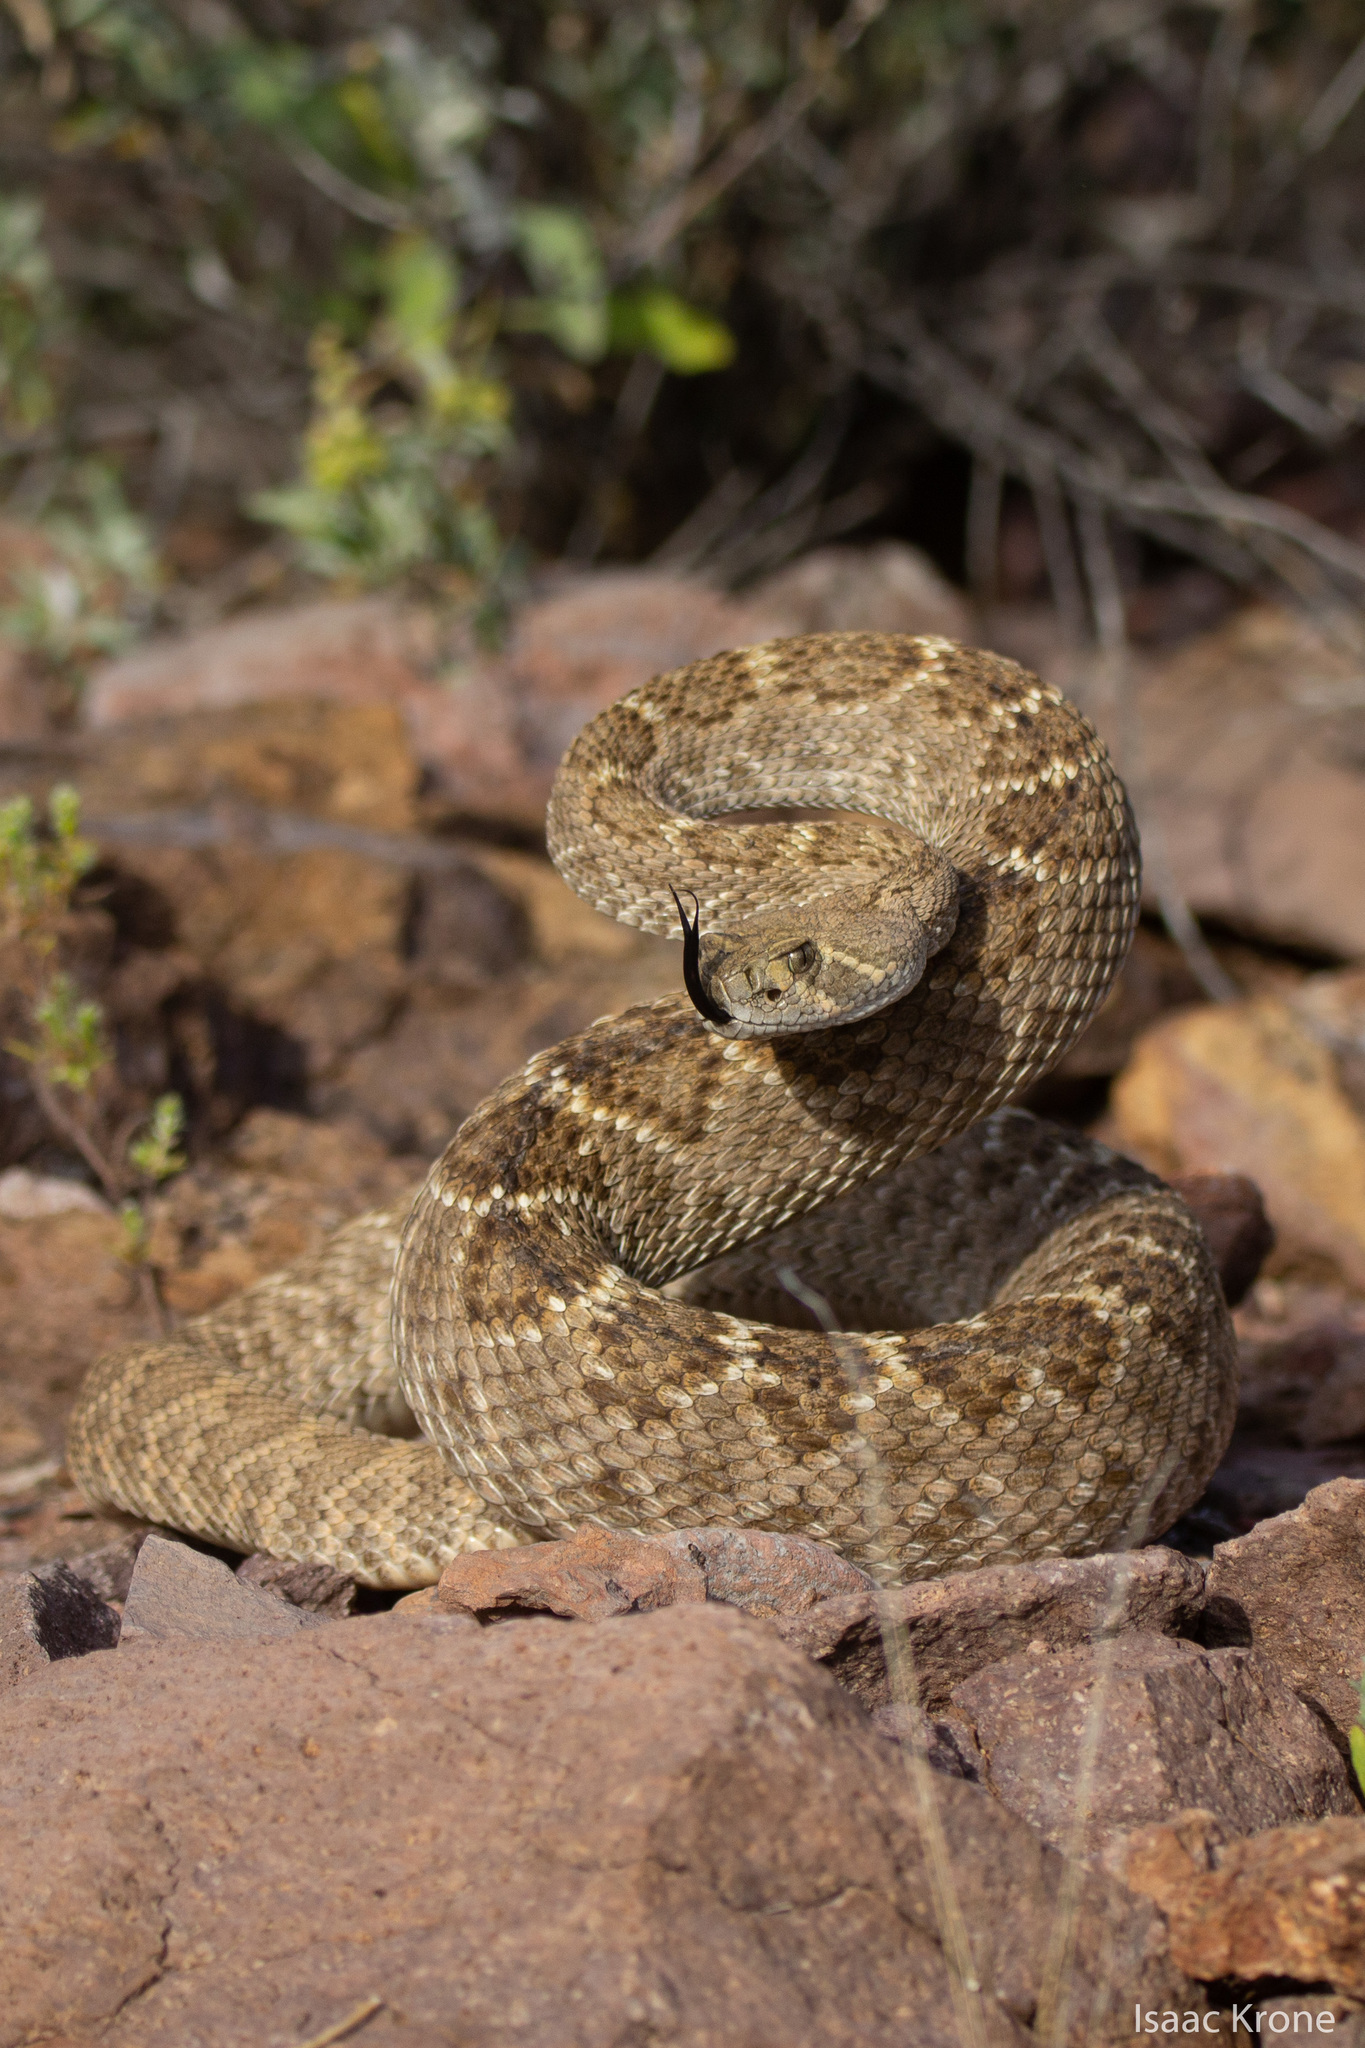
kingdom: Animalia
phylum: Chordata
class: Squamata
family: Viperidae
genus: Crotalus
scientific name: Crotalus atrox
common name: Western diamond-backed rattlesnake
